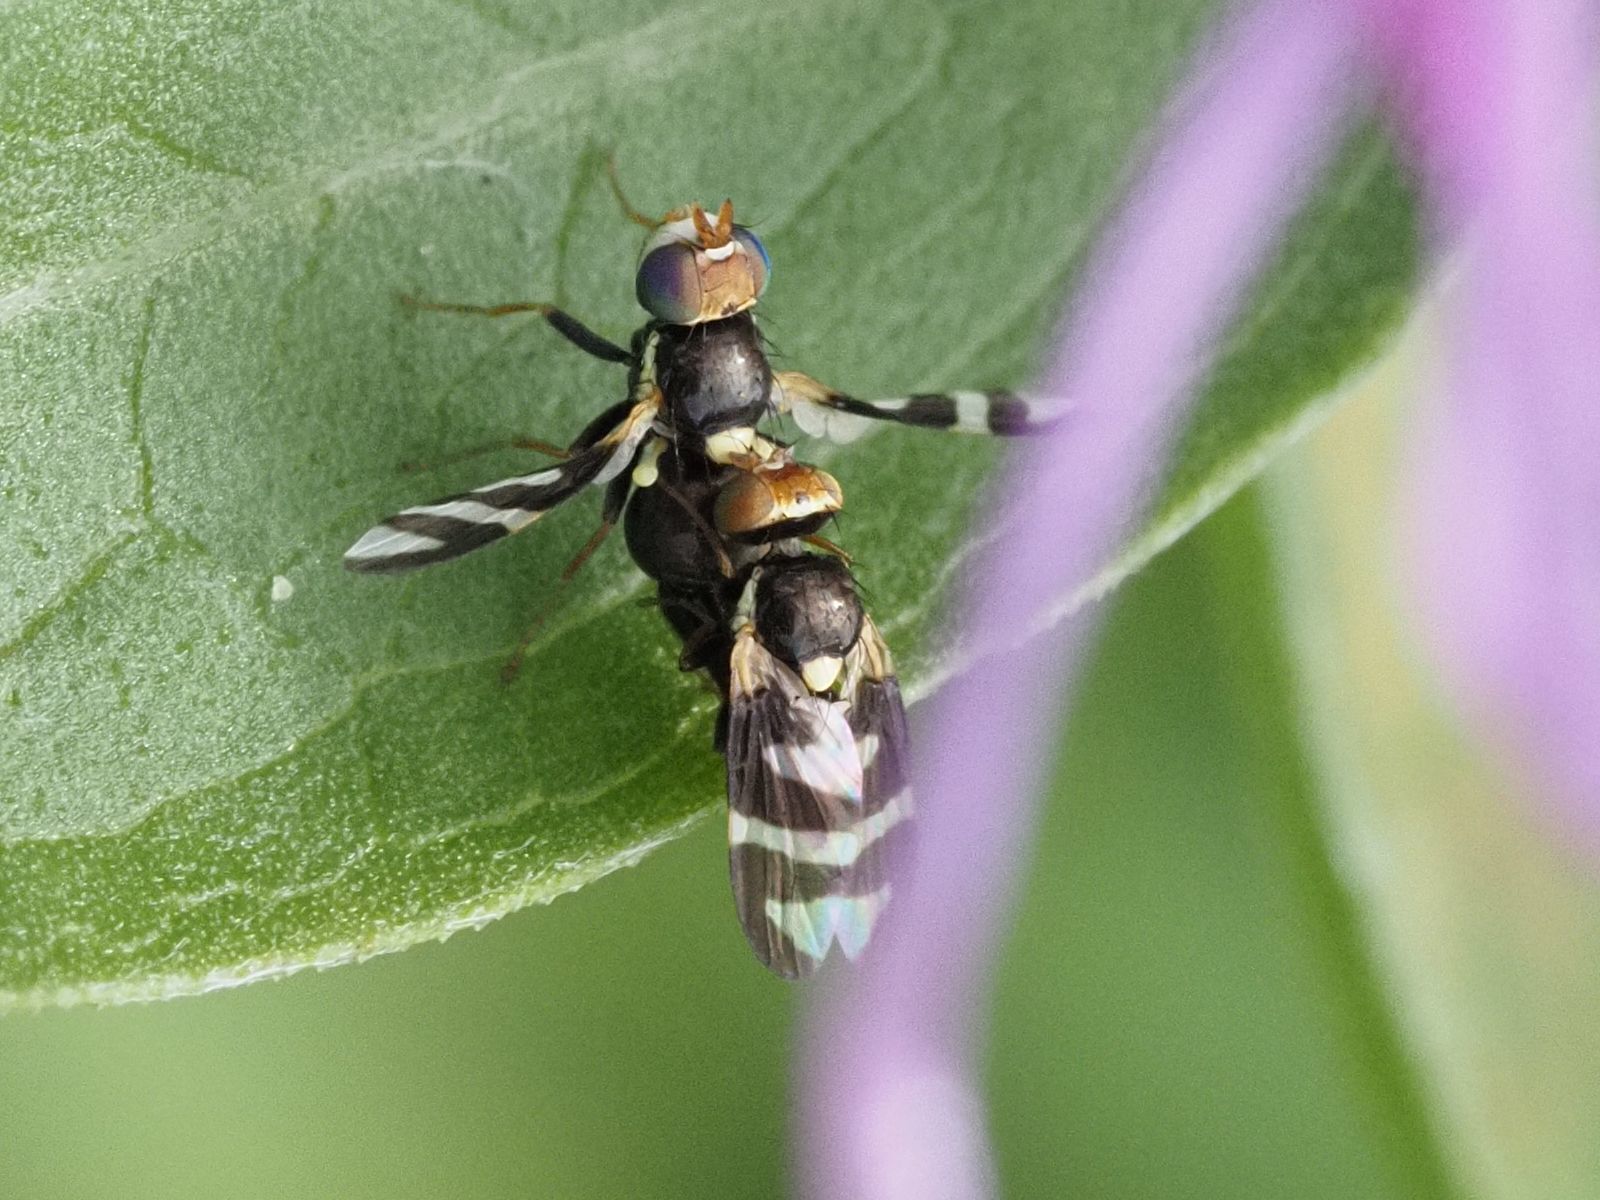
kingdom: Animalia
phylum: Arthropoda
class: Insecta
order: Diptera
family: Tephritidae
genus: Urophora
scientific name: Urophora quadrifasciata
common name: Knapweed seedhead fly
